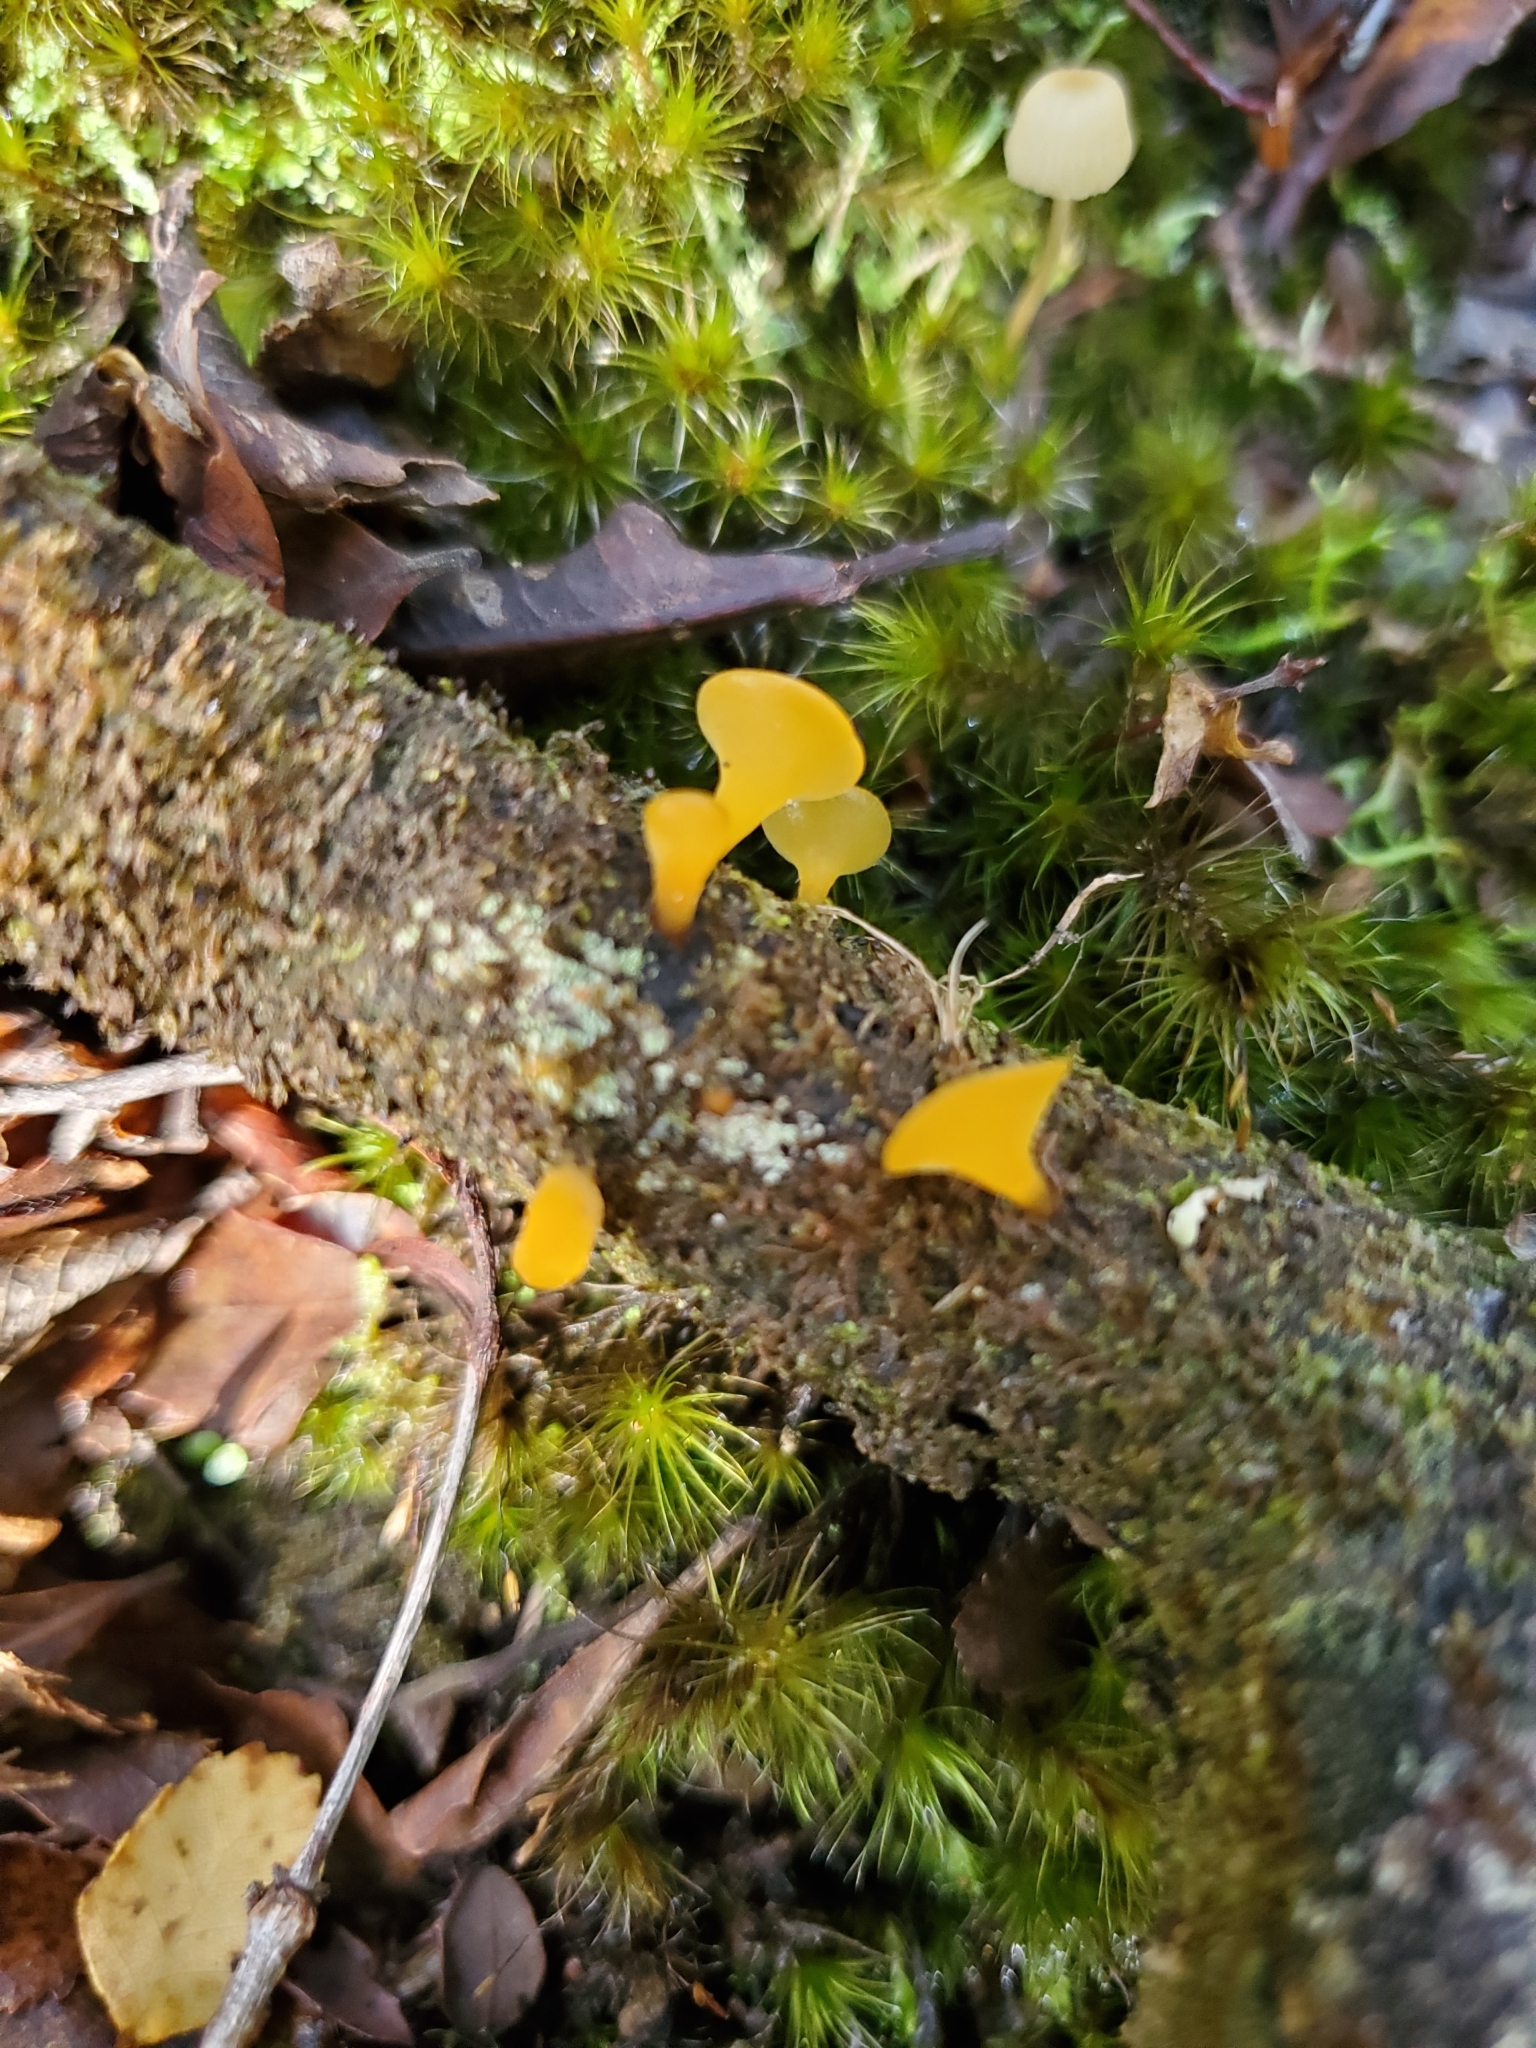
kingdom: Fungi
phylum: Basidiomycota
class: Dacrymycetes
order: Dacrymycetales
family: Dacrymycetaceae
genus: Heterotextus
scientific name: Heterotextus miltinus
